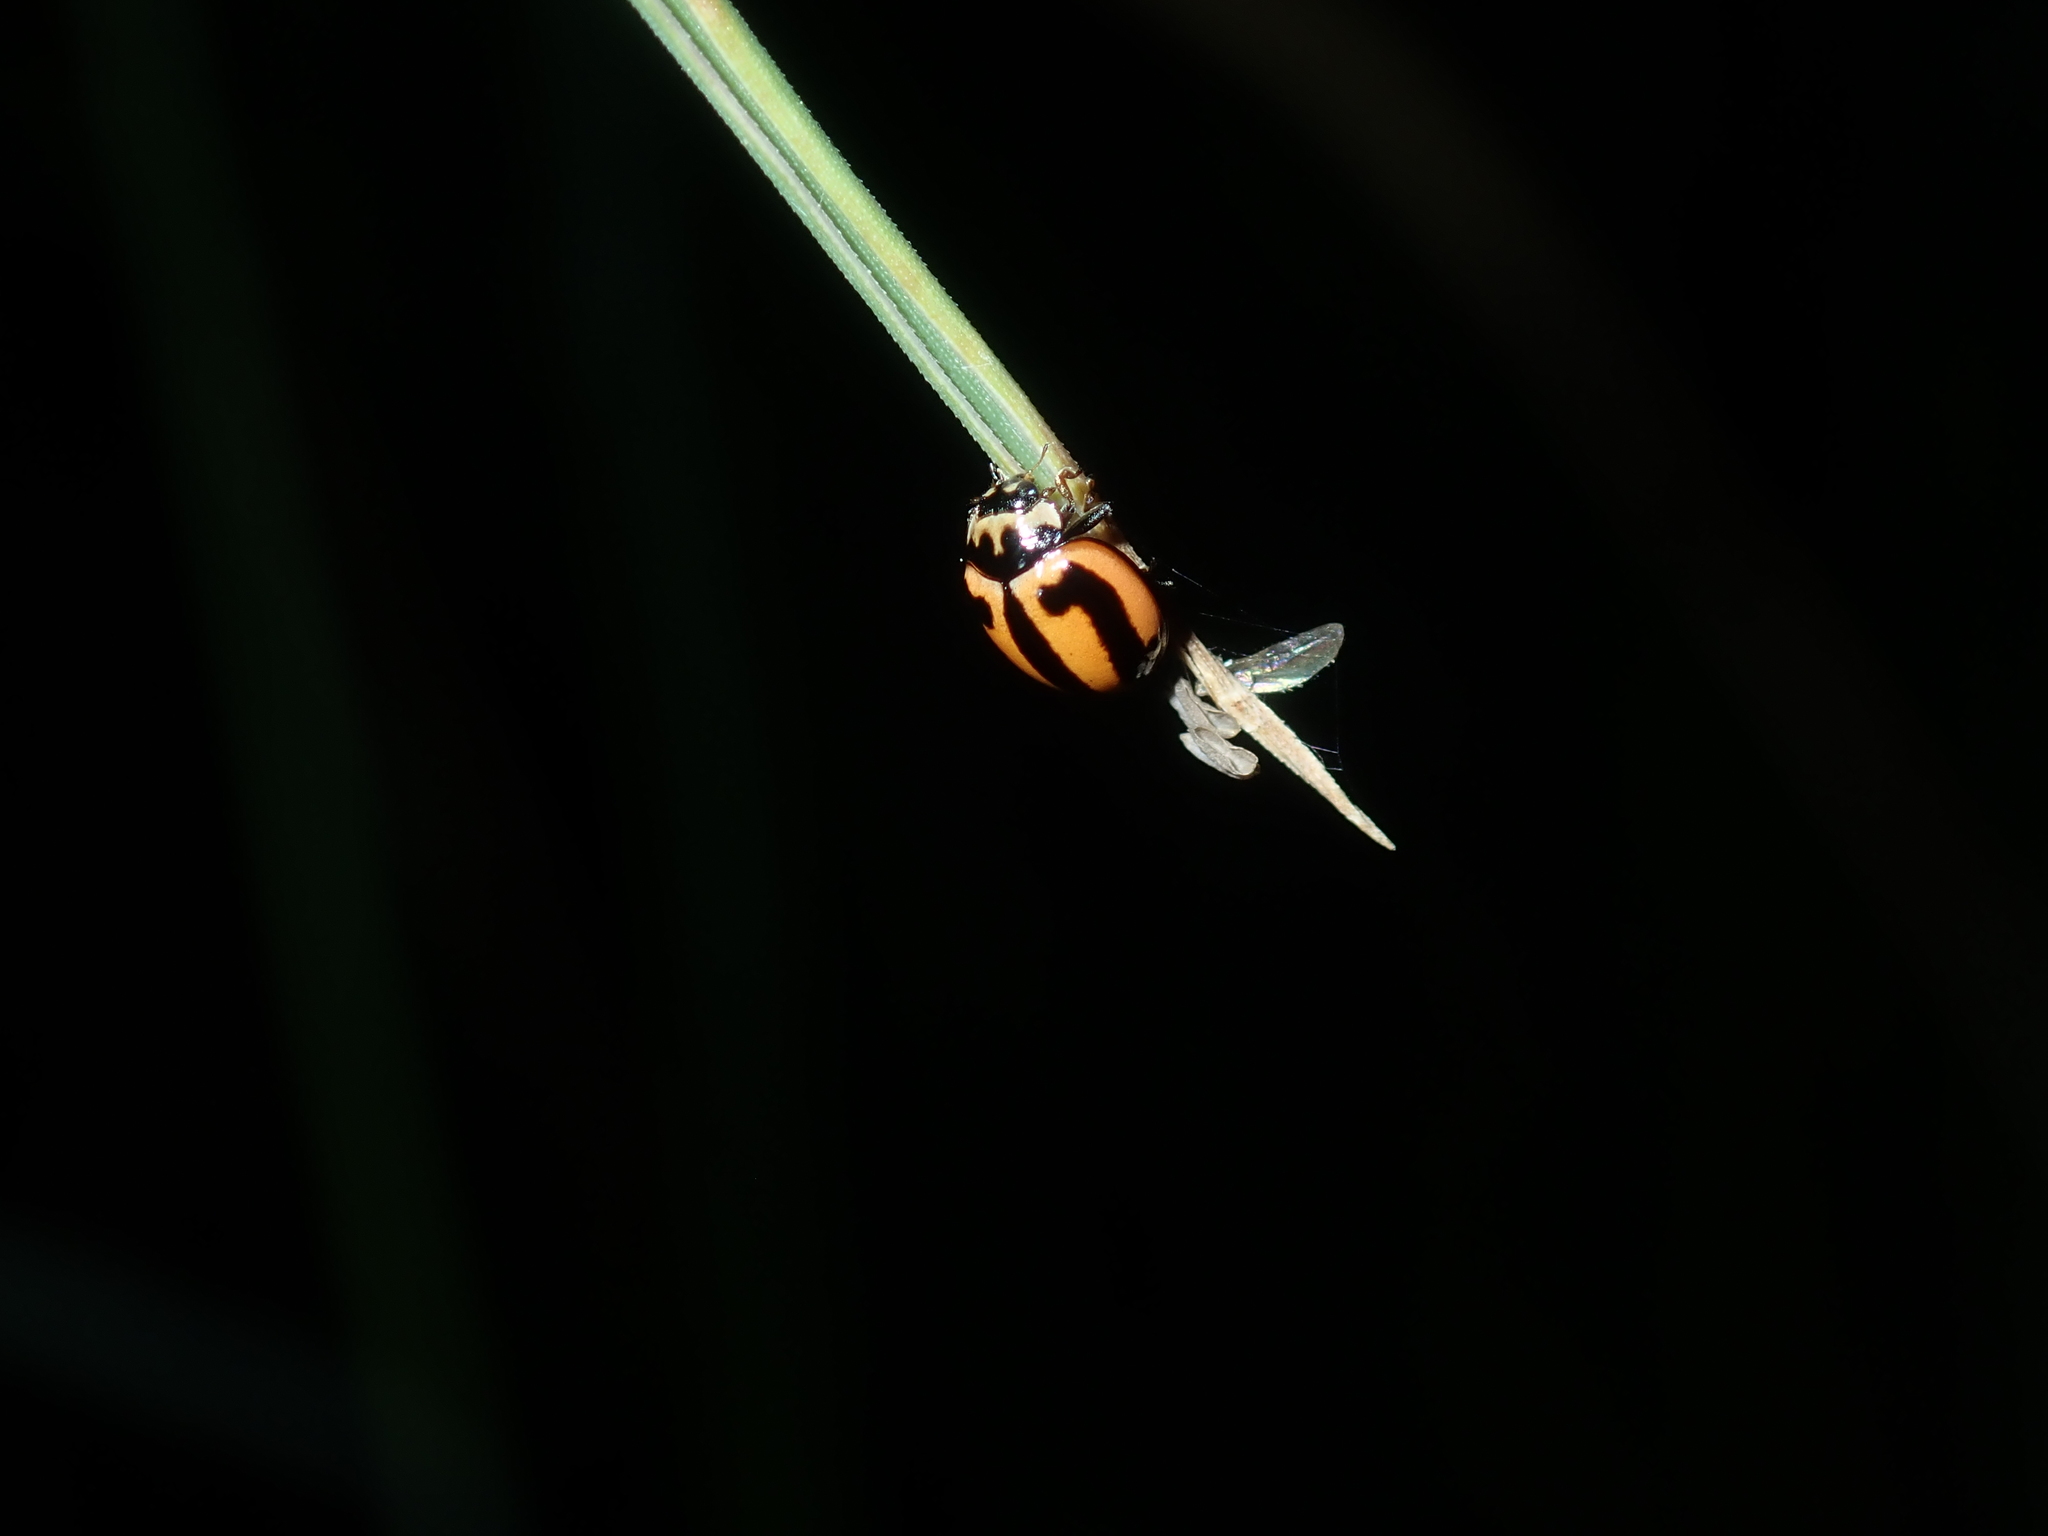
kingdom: Animalia
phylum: Arthropoda
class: Insecta
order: Coleoptera
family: Coccinellidae
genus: Micraspis
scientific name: Micraspis frenata
